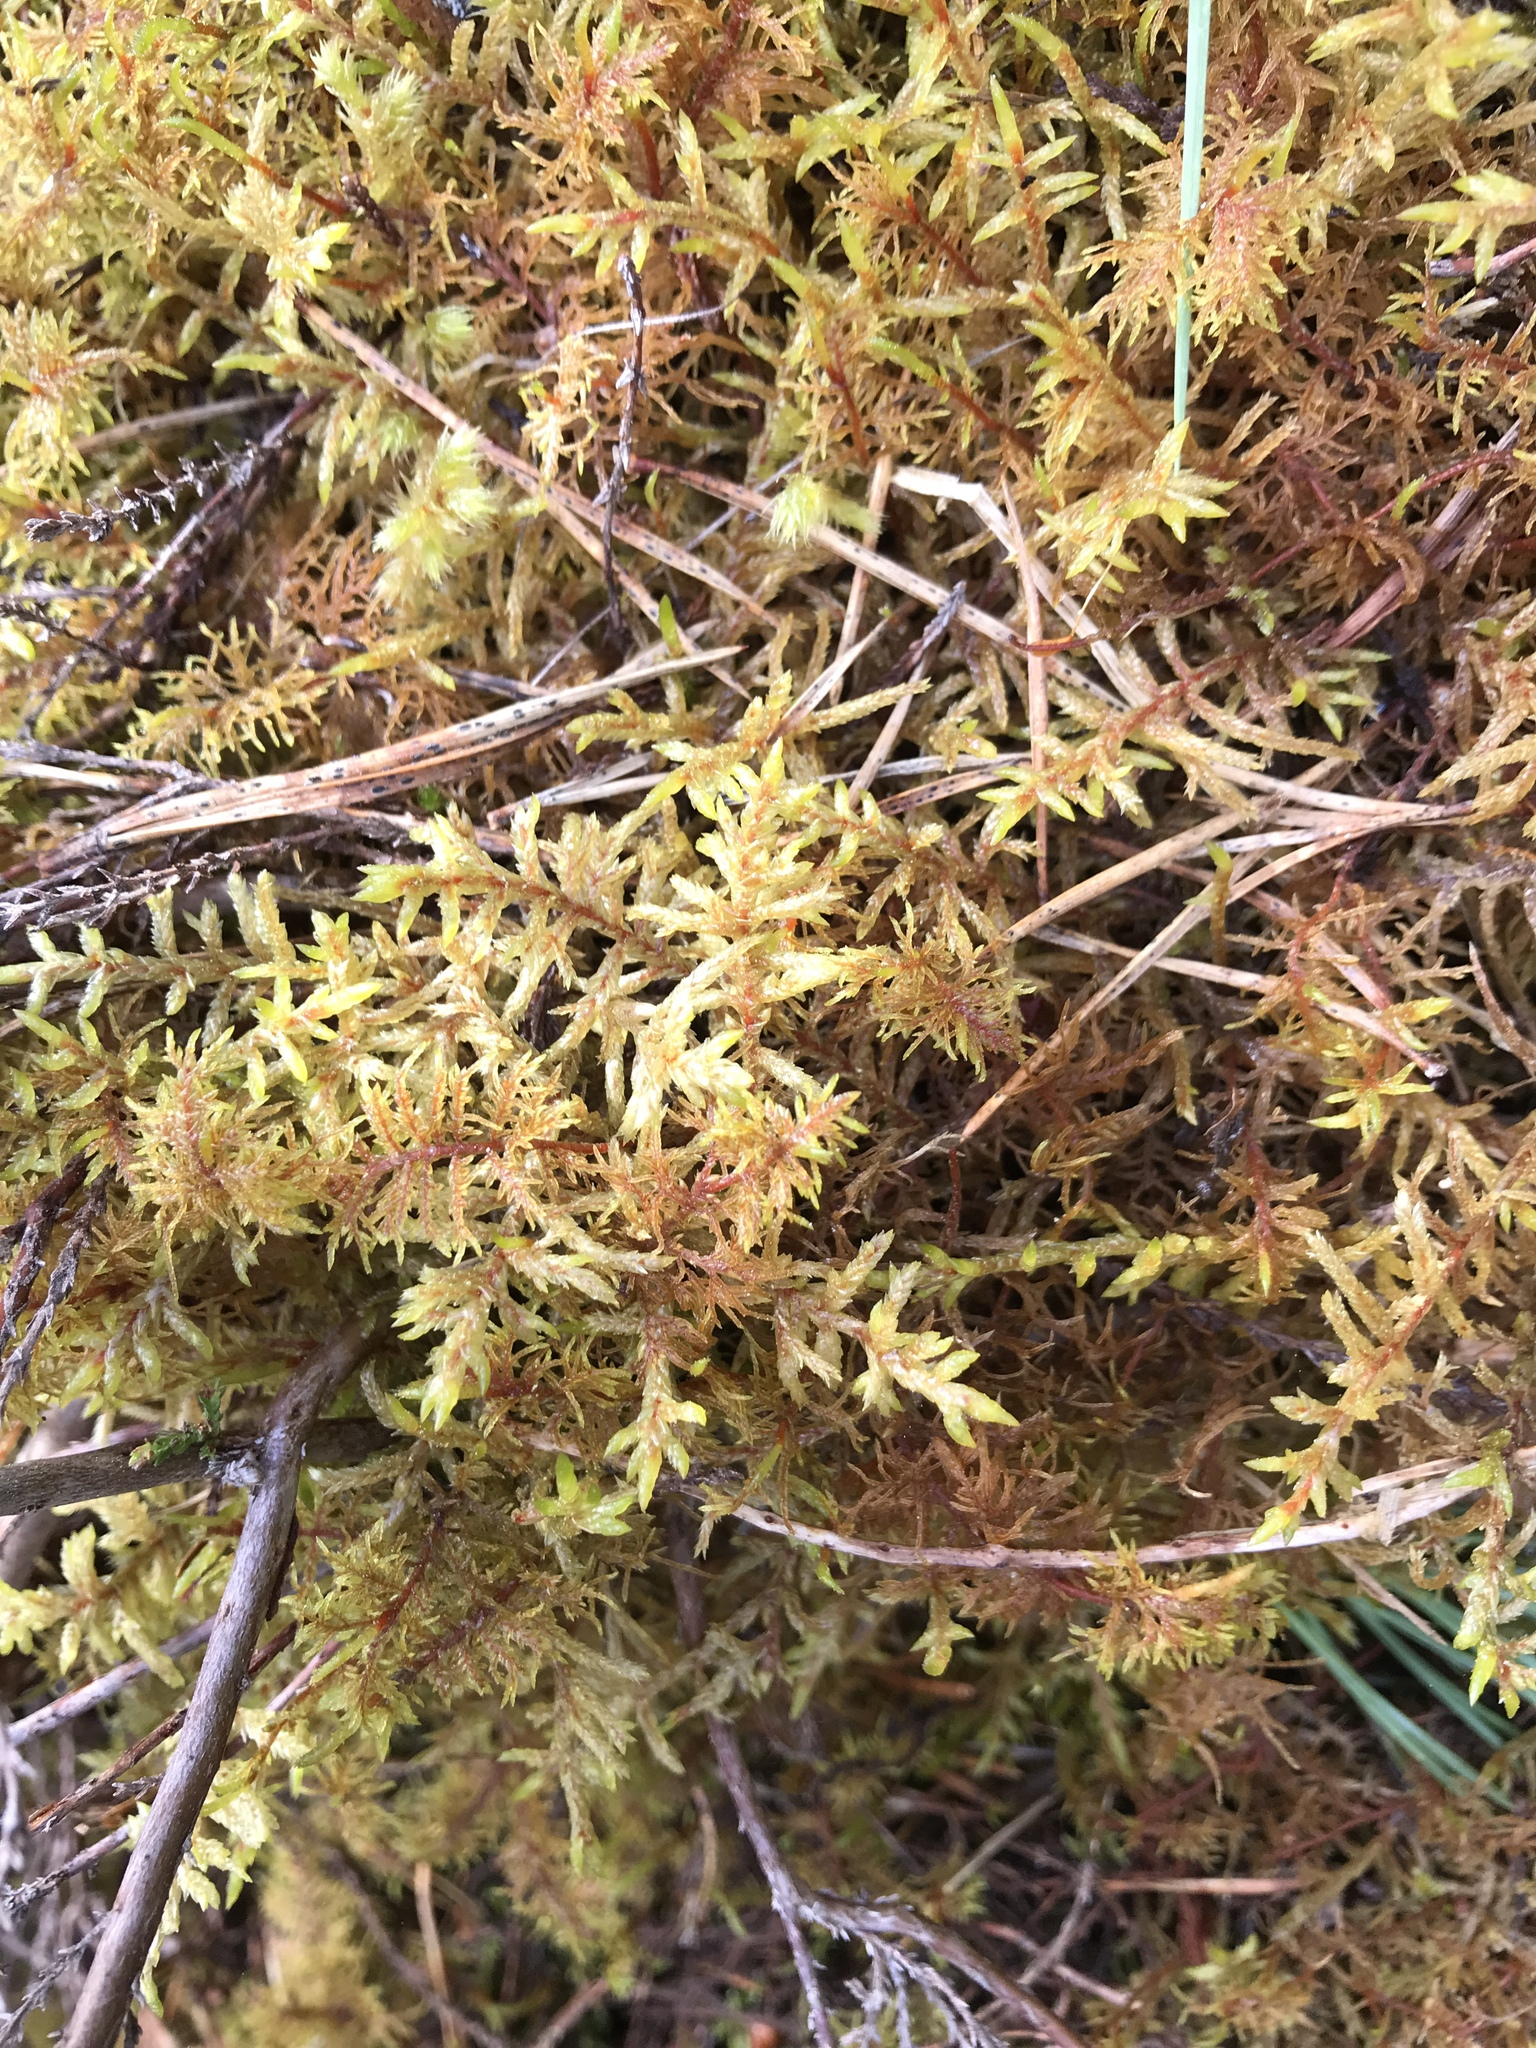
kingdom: Plantae
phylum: Bryophyta
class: Bryopsida
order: Hypnales
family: Hylocomiaceae
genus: Hylocomium
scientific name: Hylocomium splendens
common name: Stairstep moss
